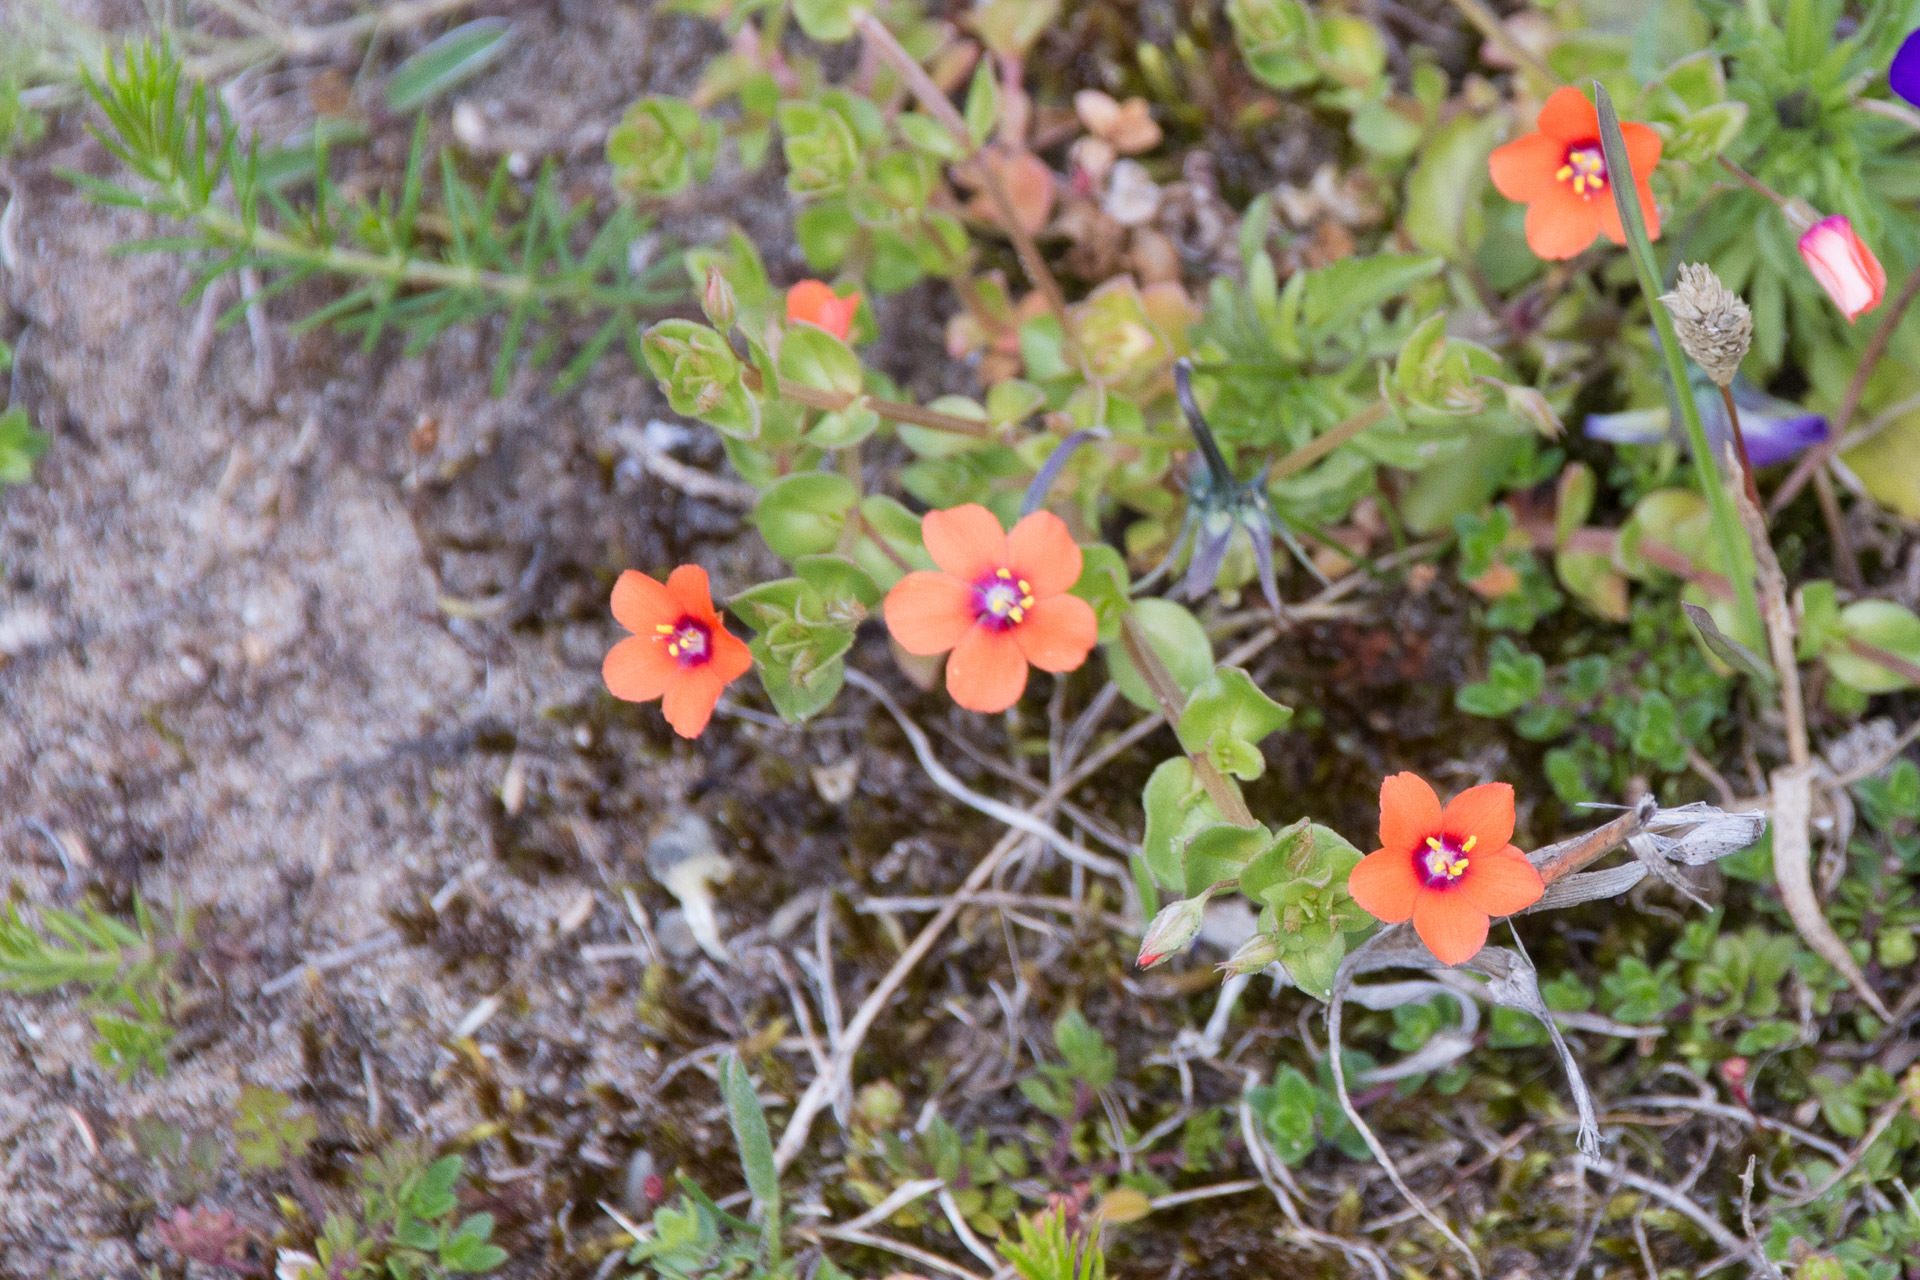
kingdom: Plantae
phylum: Tracheophyta
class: Magnoliopsida
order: Ericales
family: Primulaceae
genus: Lysimachia
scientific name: Lysimachia arvensis
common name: Scarlet pimpernel
